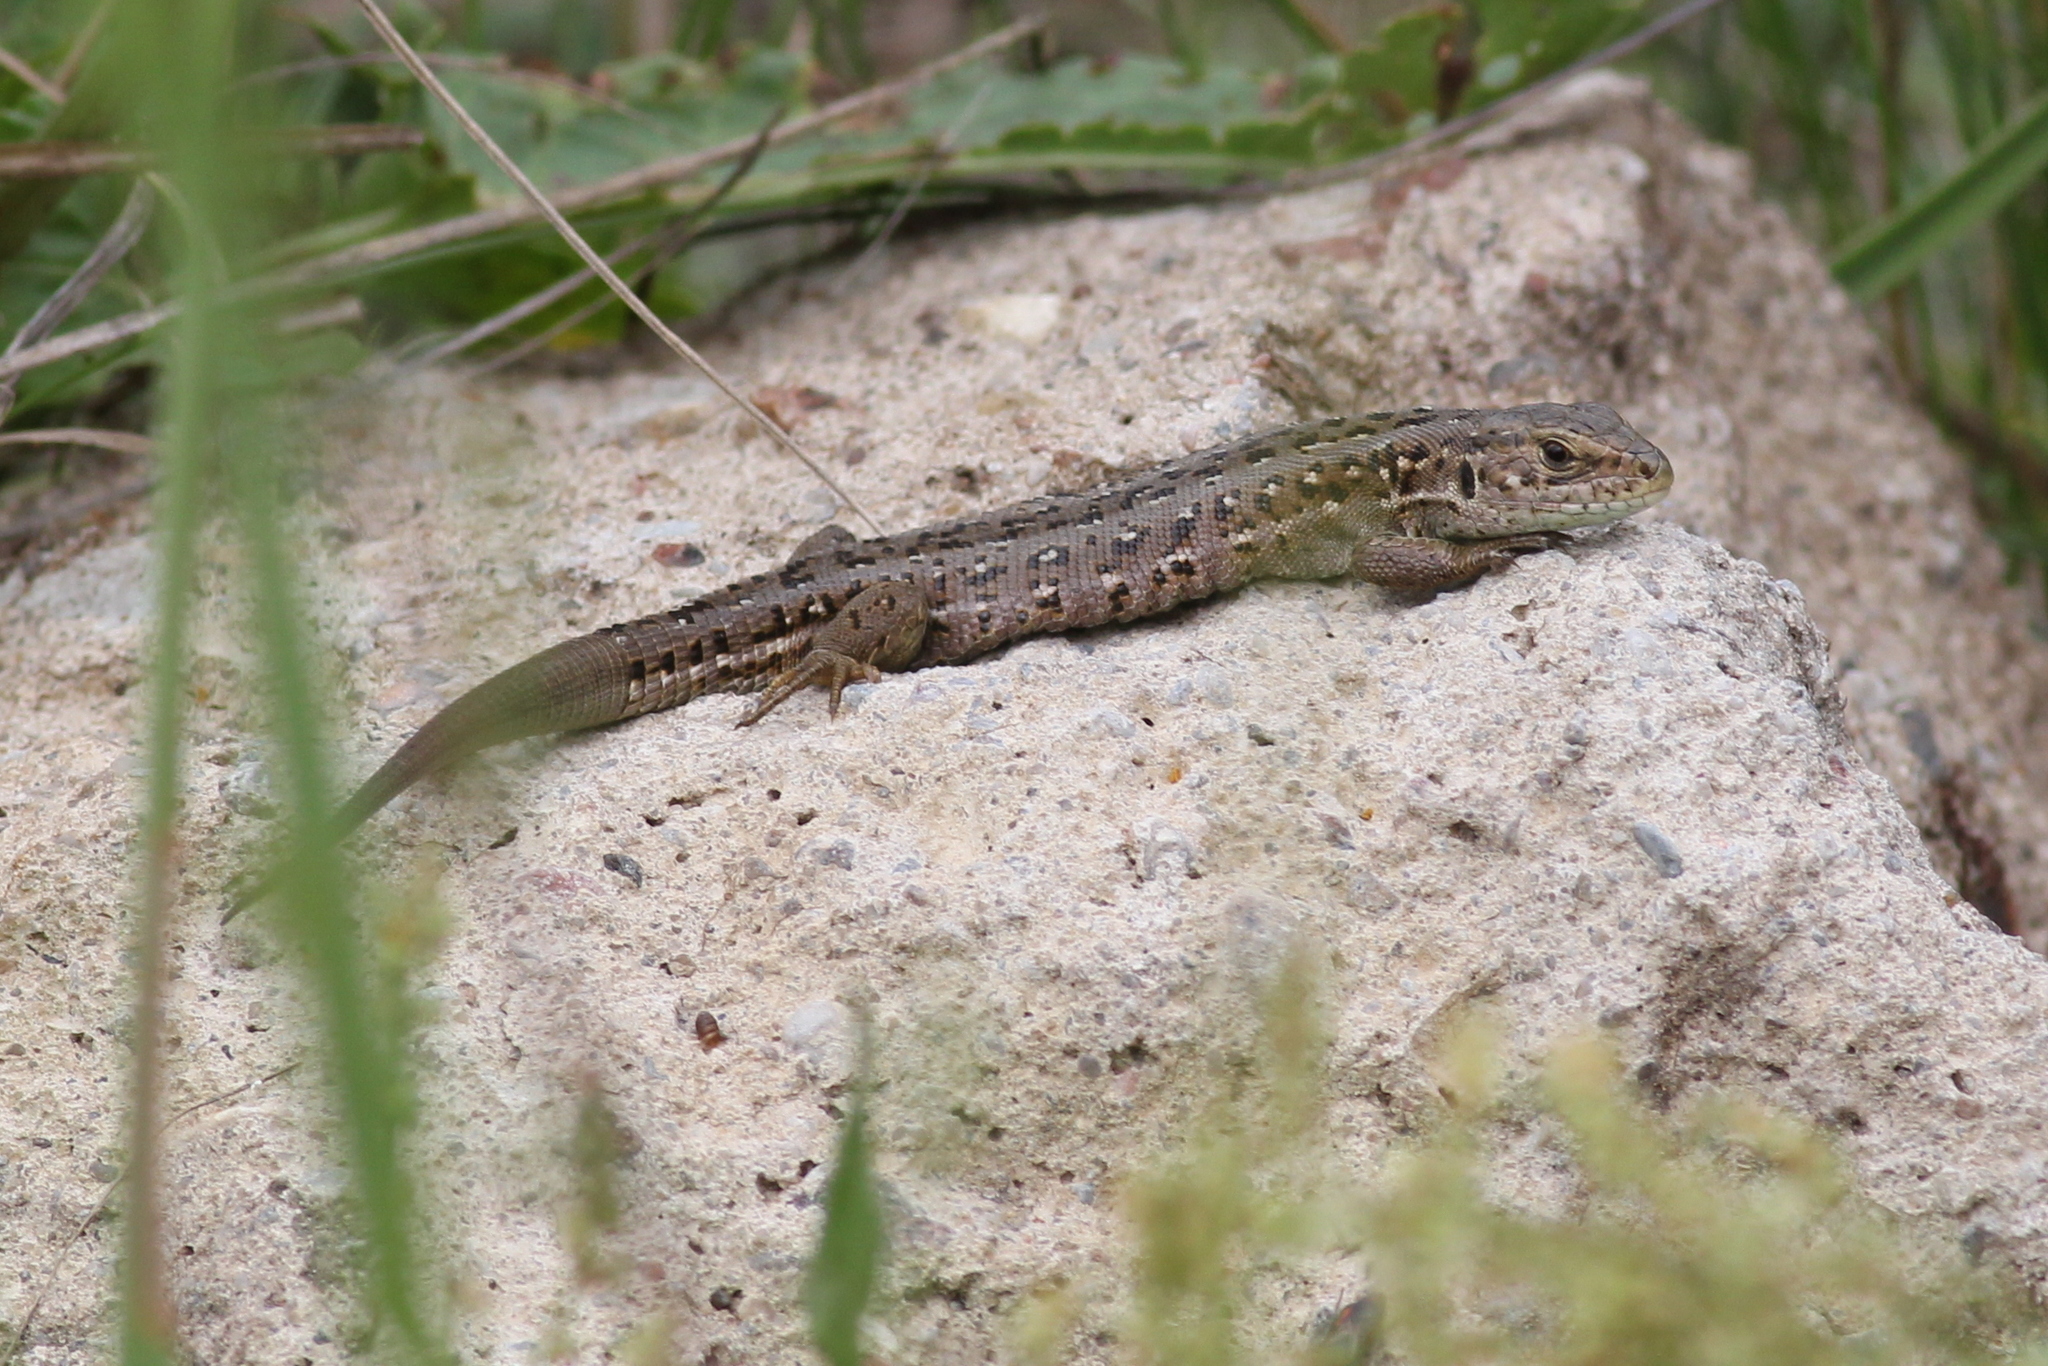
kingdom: Animalia
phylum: Chordata
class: Squamata
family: Lacertidae
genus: Lacerta
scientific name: Lacerta agilis
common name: Sand lizard
